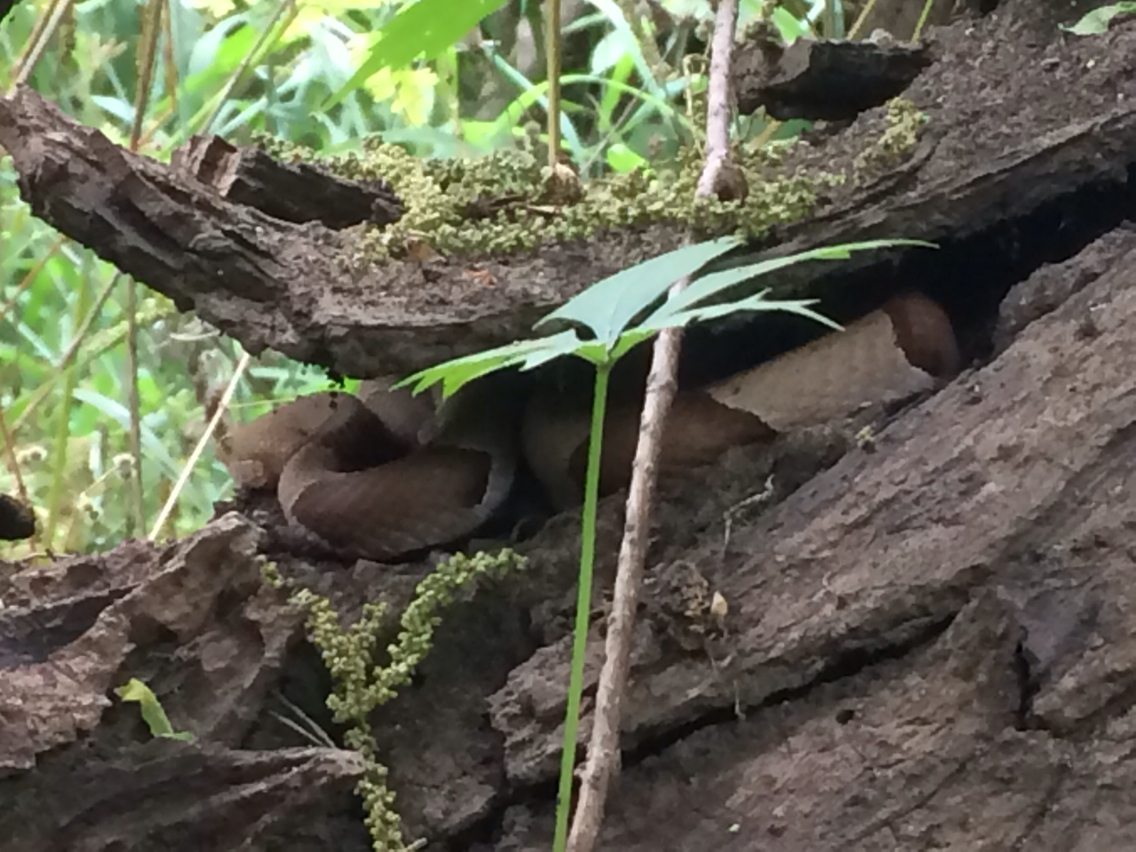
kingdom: Animalia
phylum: Chordata
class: Squamata
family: Viperidae
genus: Agkistrodon
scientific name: Agkistrodon contortrix
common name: Northern copperhead
